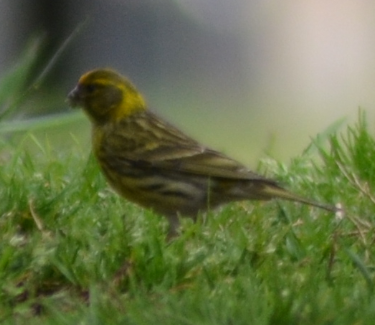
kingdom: Animalia
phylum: Chordata
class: Aves
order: Passeriformes
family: Fringillidae
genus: Serinus
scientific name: Serinus serinus
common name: European serin
